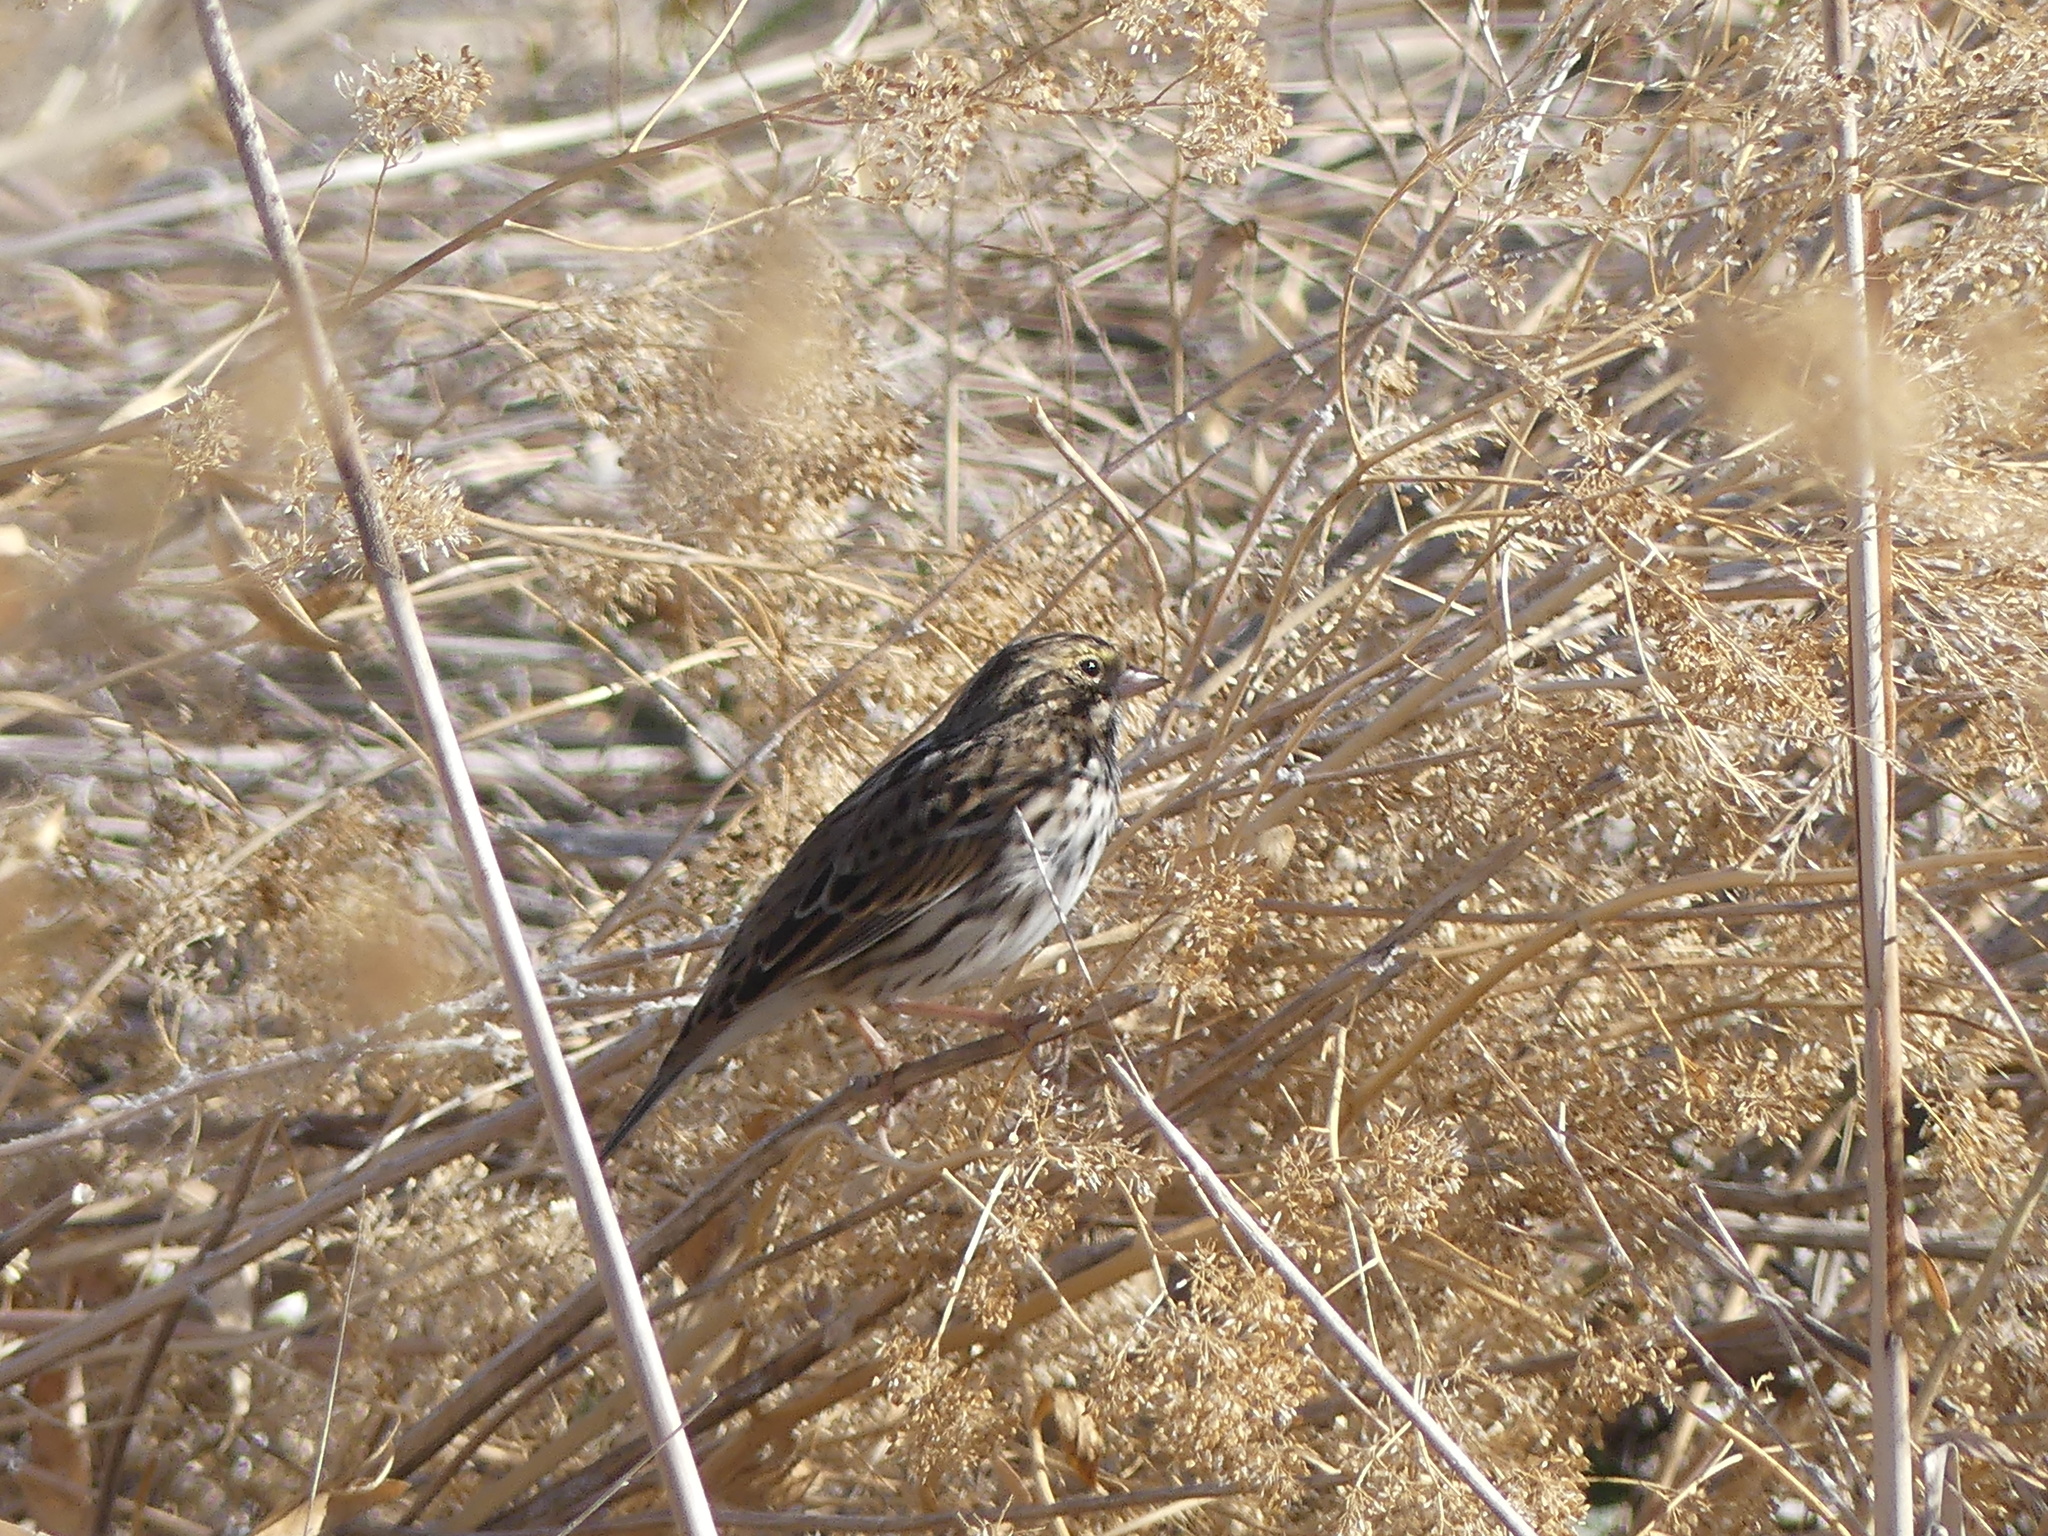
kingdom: Animalia
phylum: Chordata
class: Aves
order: Passeriformes
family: Passerellidae
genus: Passerculus
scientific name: Passerculus sandwichensis
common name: Savannah sparrow
